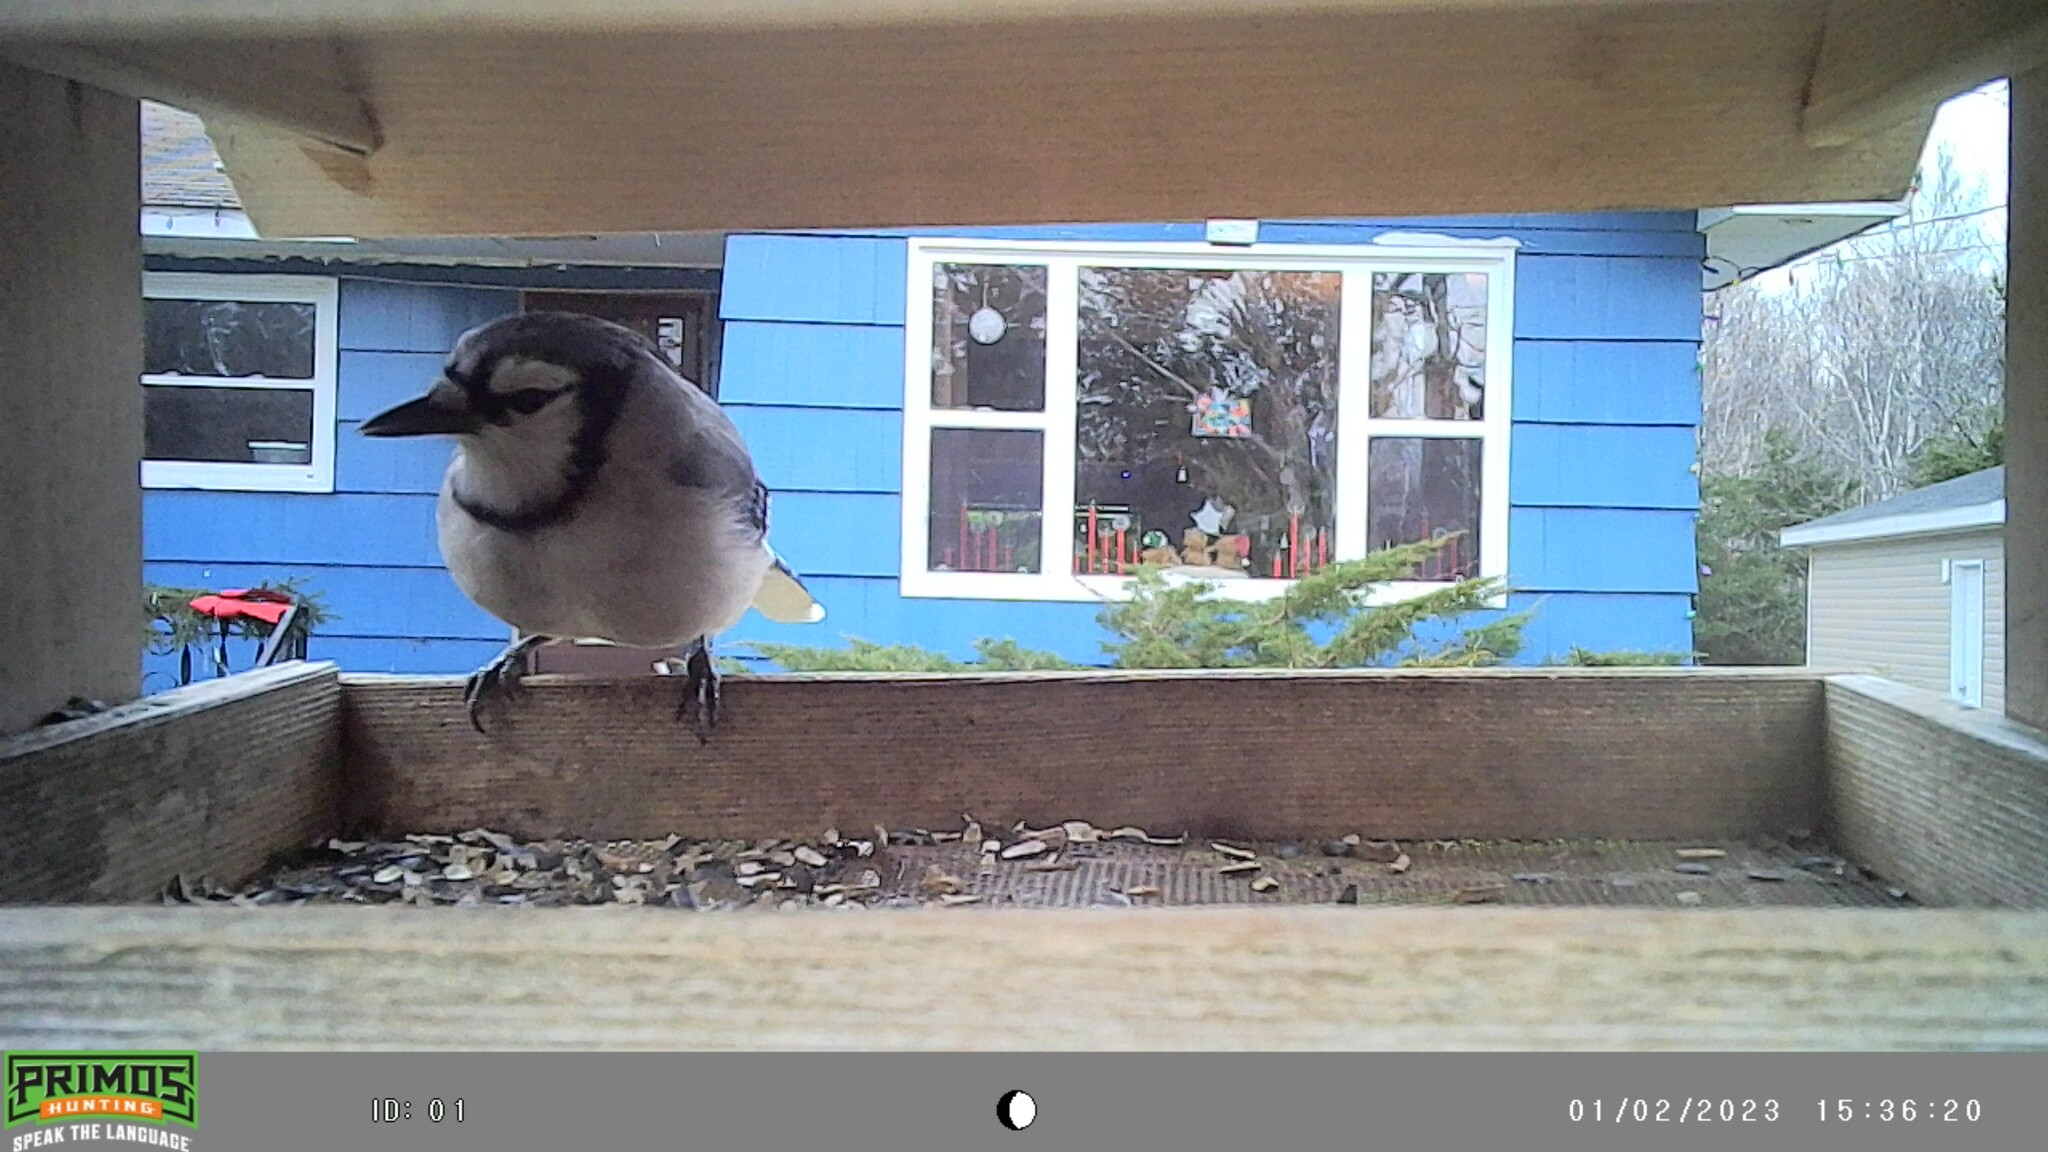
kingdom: Animalia
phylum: Chordata
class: Aves
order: Passeriformes
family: Corvidae
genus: Cyanocitta
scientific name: Cyanocitta cristata
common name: Blue jay
